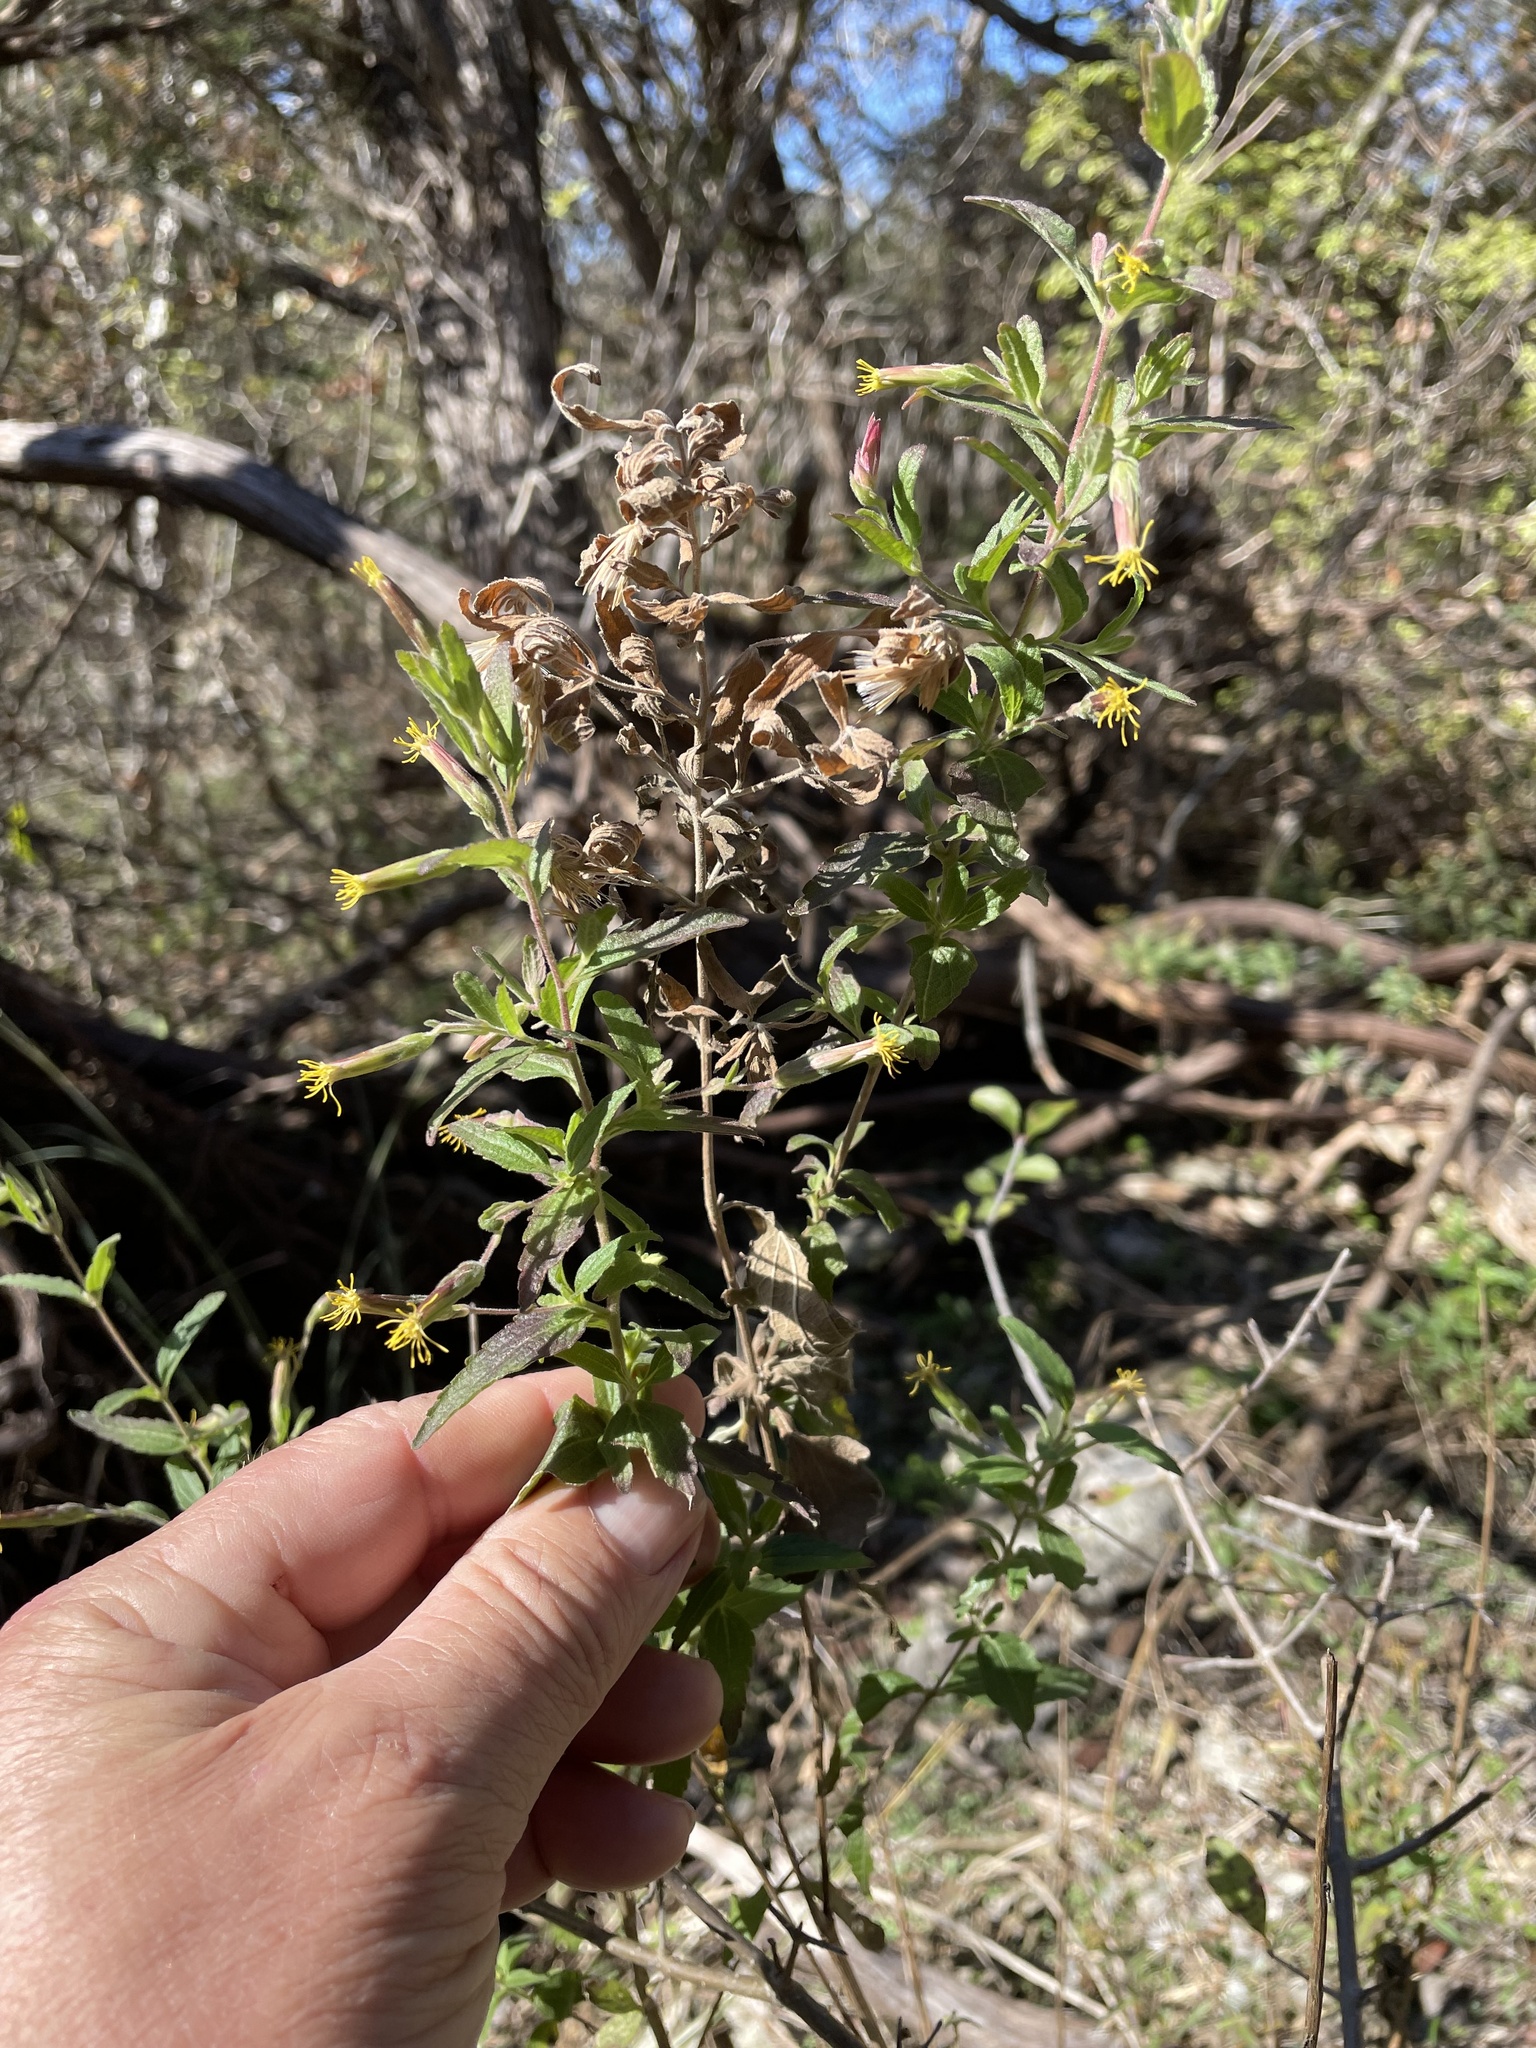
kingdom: Plantae
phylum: Tracheophyta
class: Magnoliopsida
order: Asterales
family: Asteraceae
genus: Brickellia
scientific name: Brickellia cylindracea
